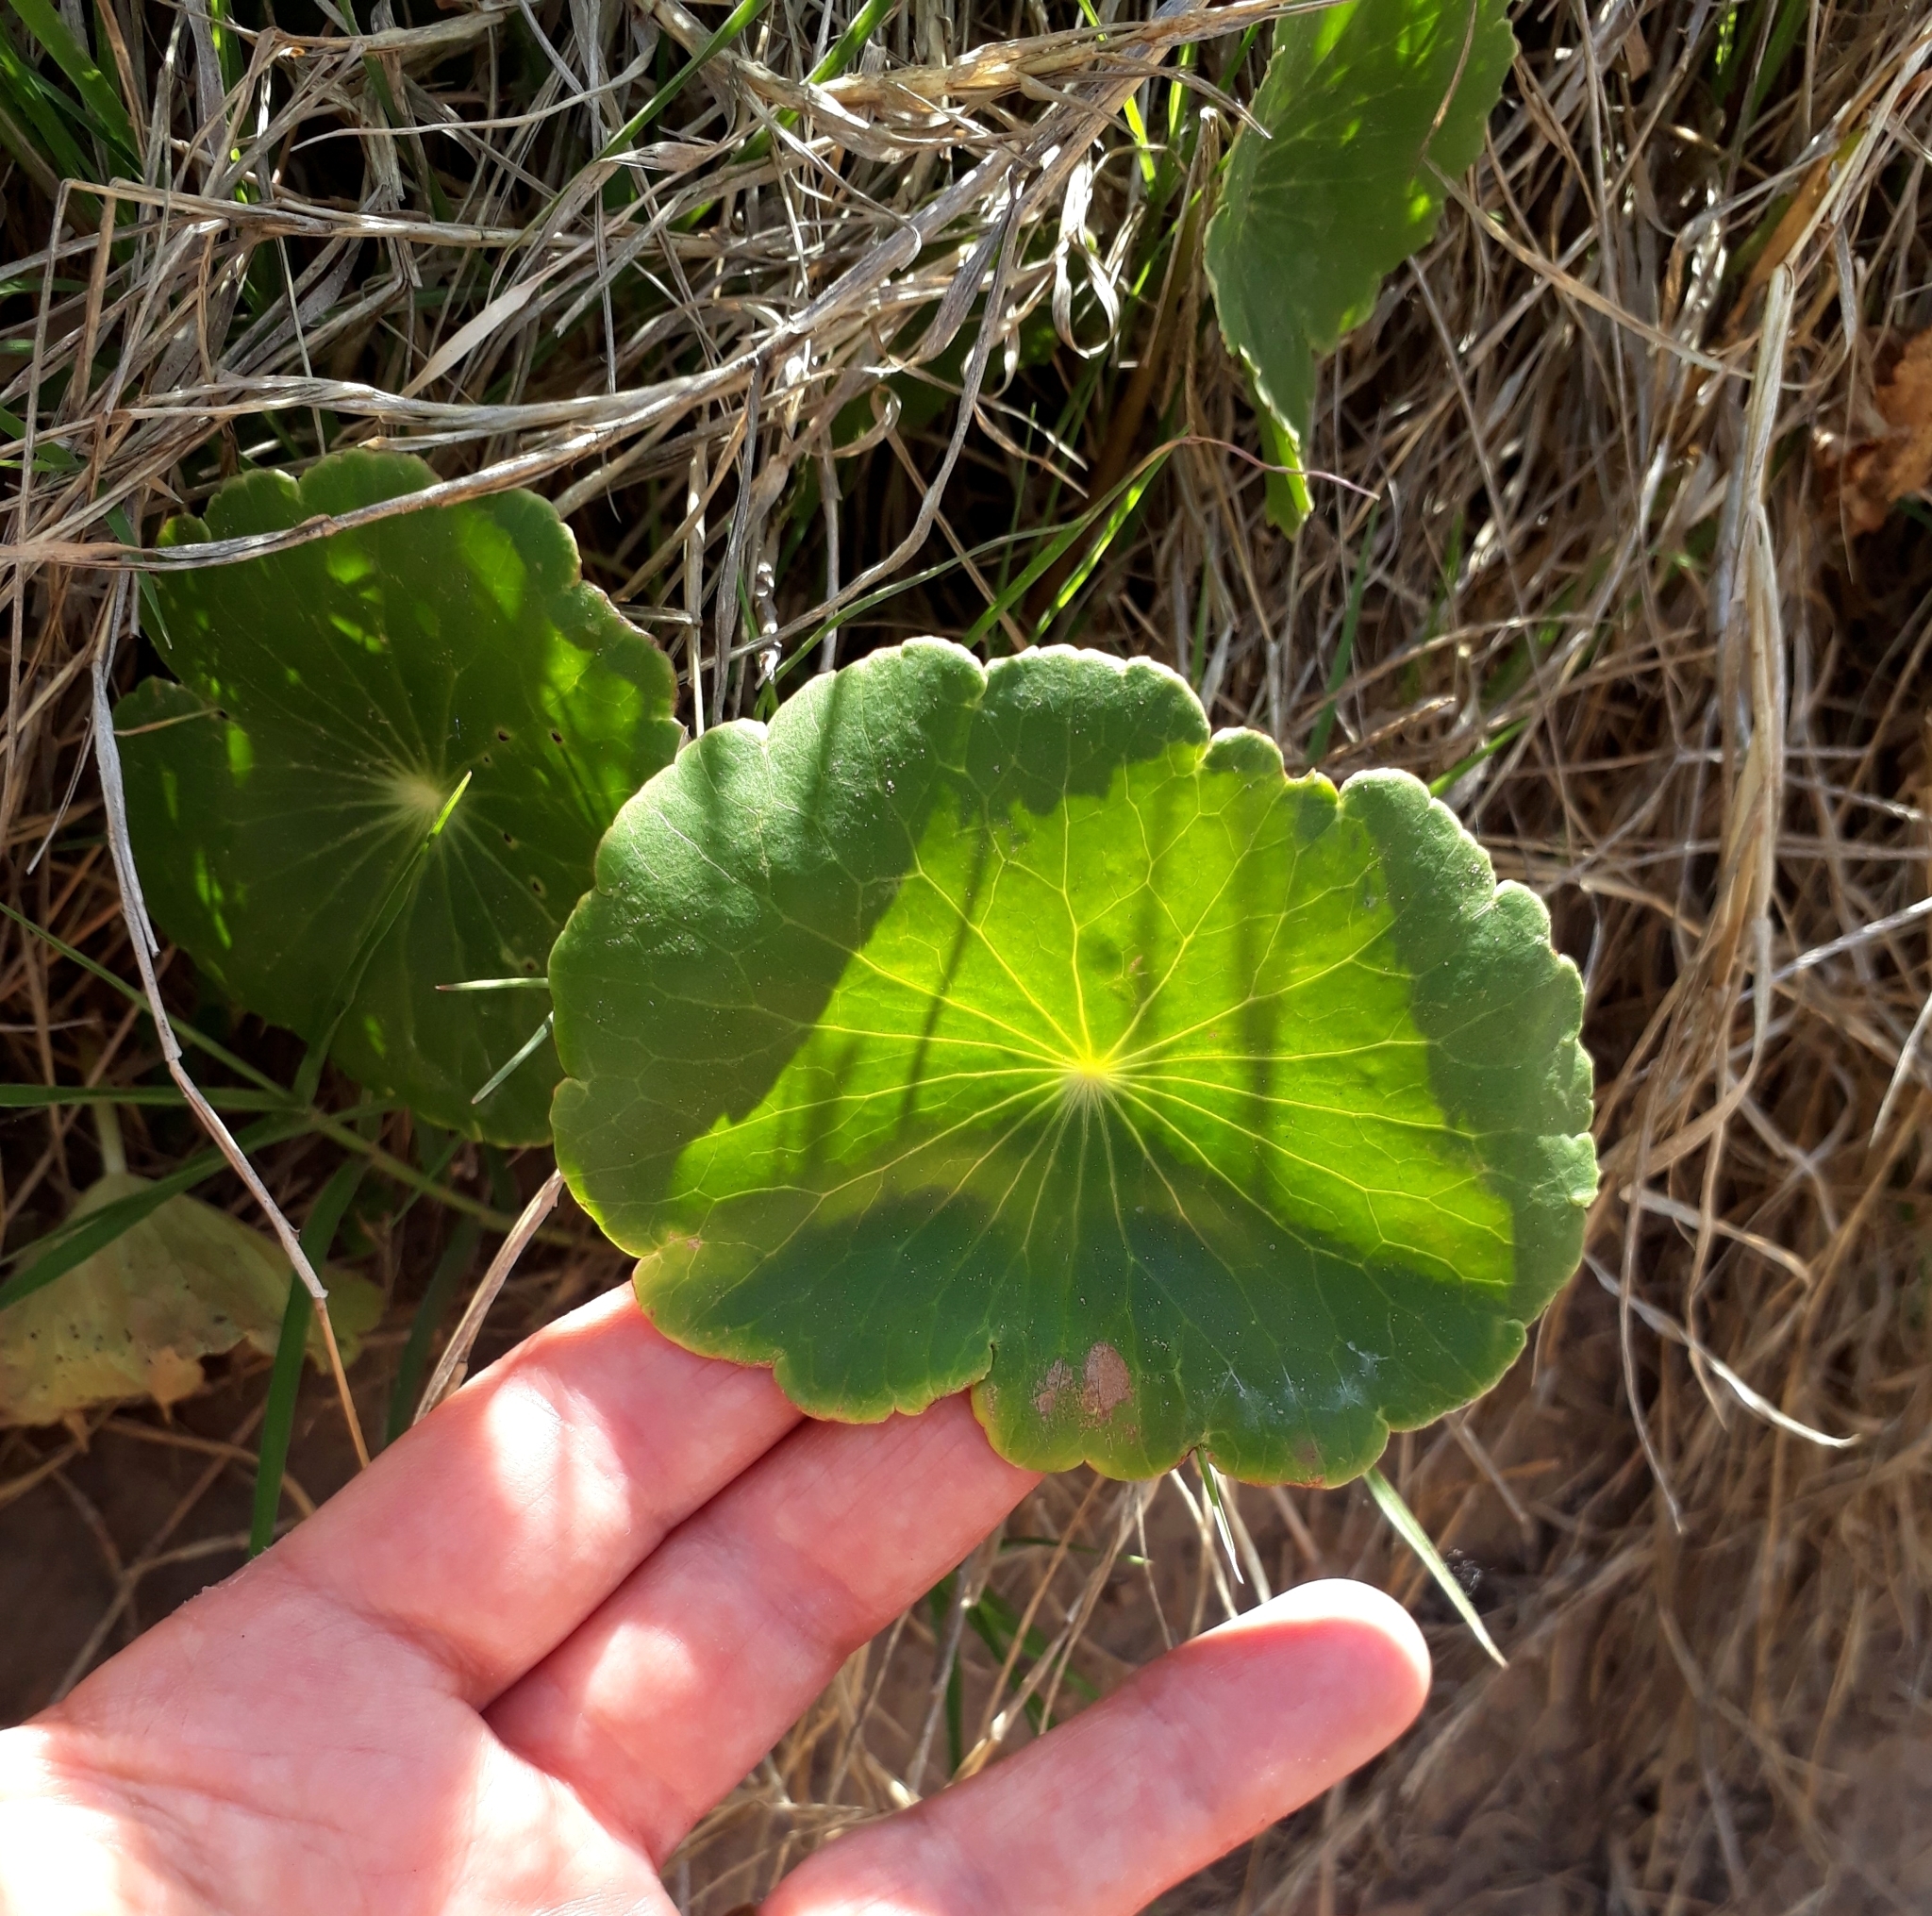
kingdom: Plantae
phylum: Tracheophyta
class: Magnoliopsida
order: Apiales
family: Araliaceae
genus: Hydrocotyle
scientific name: Hydrocotyle bonariensis
